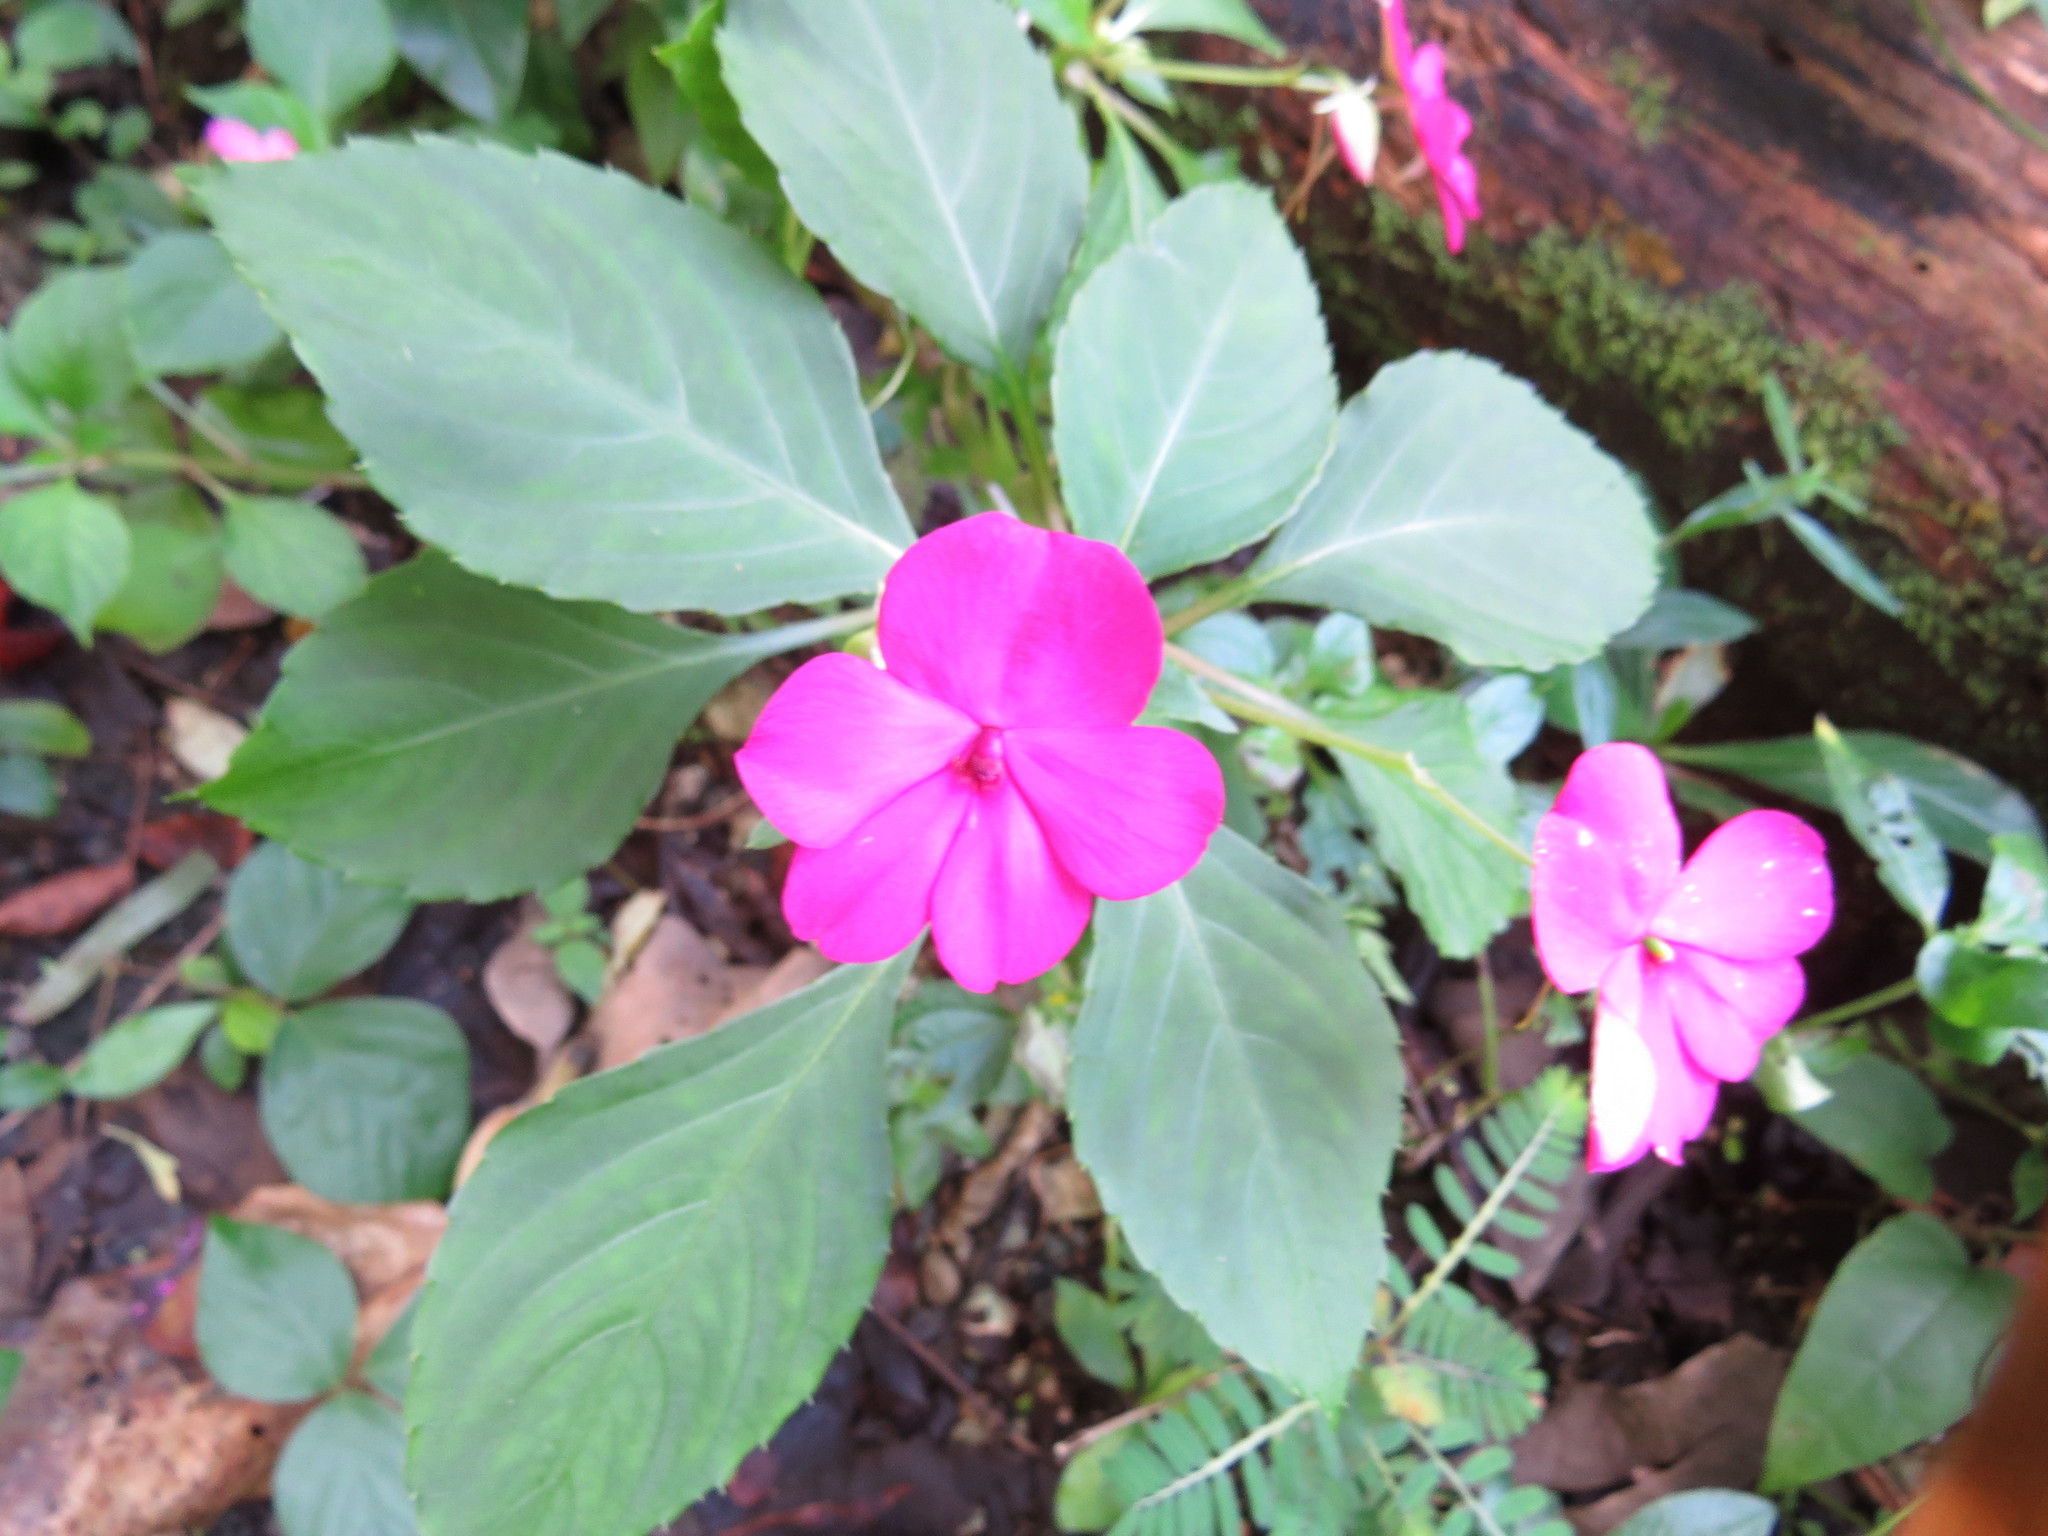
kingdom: Plantae
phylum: Tracheophyta
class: Magnoliopsida
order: Ericales
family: Balsaminaceae
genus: Impatiens
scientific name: Impatiens walleriana
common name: Buzzy lizzy
